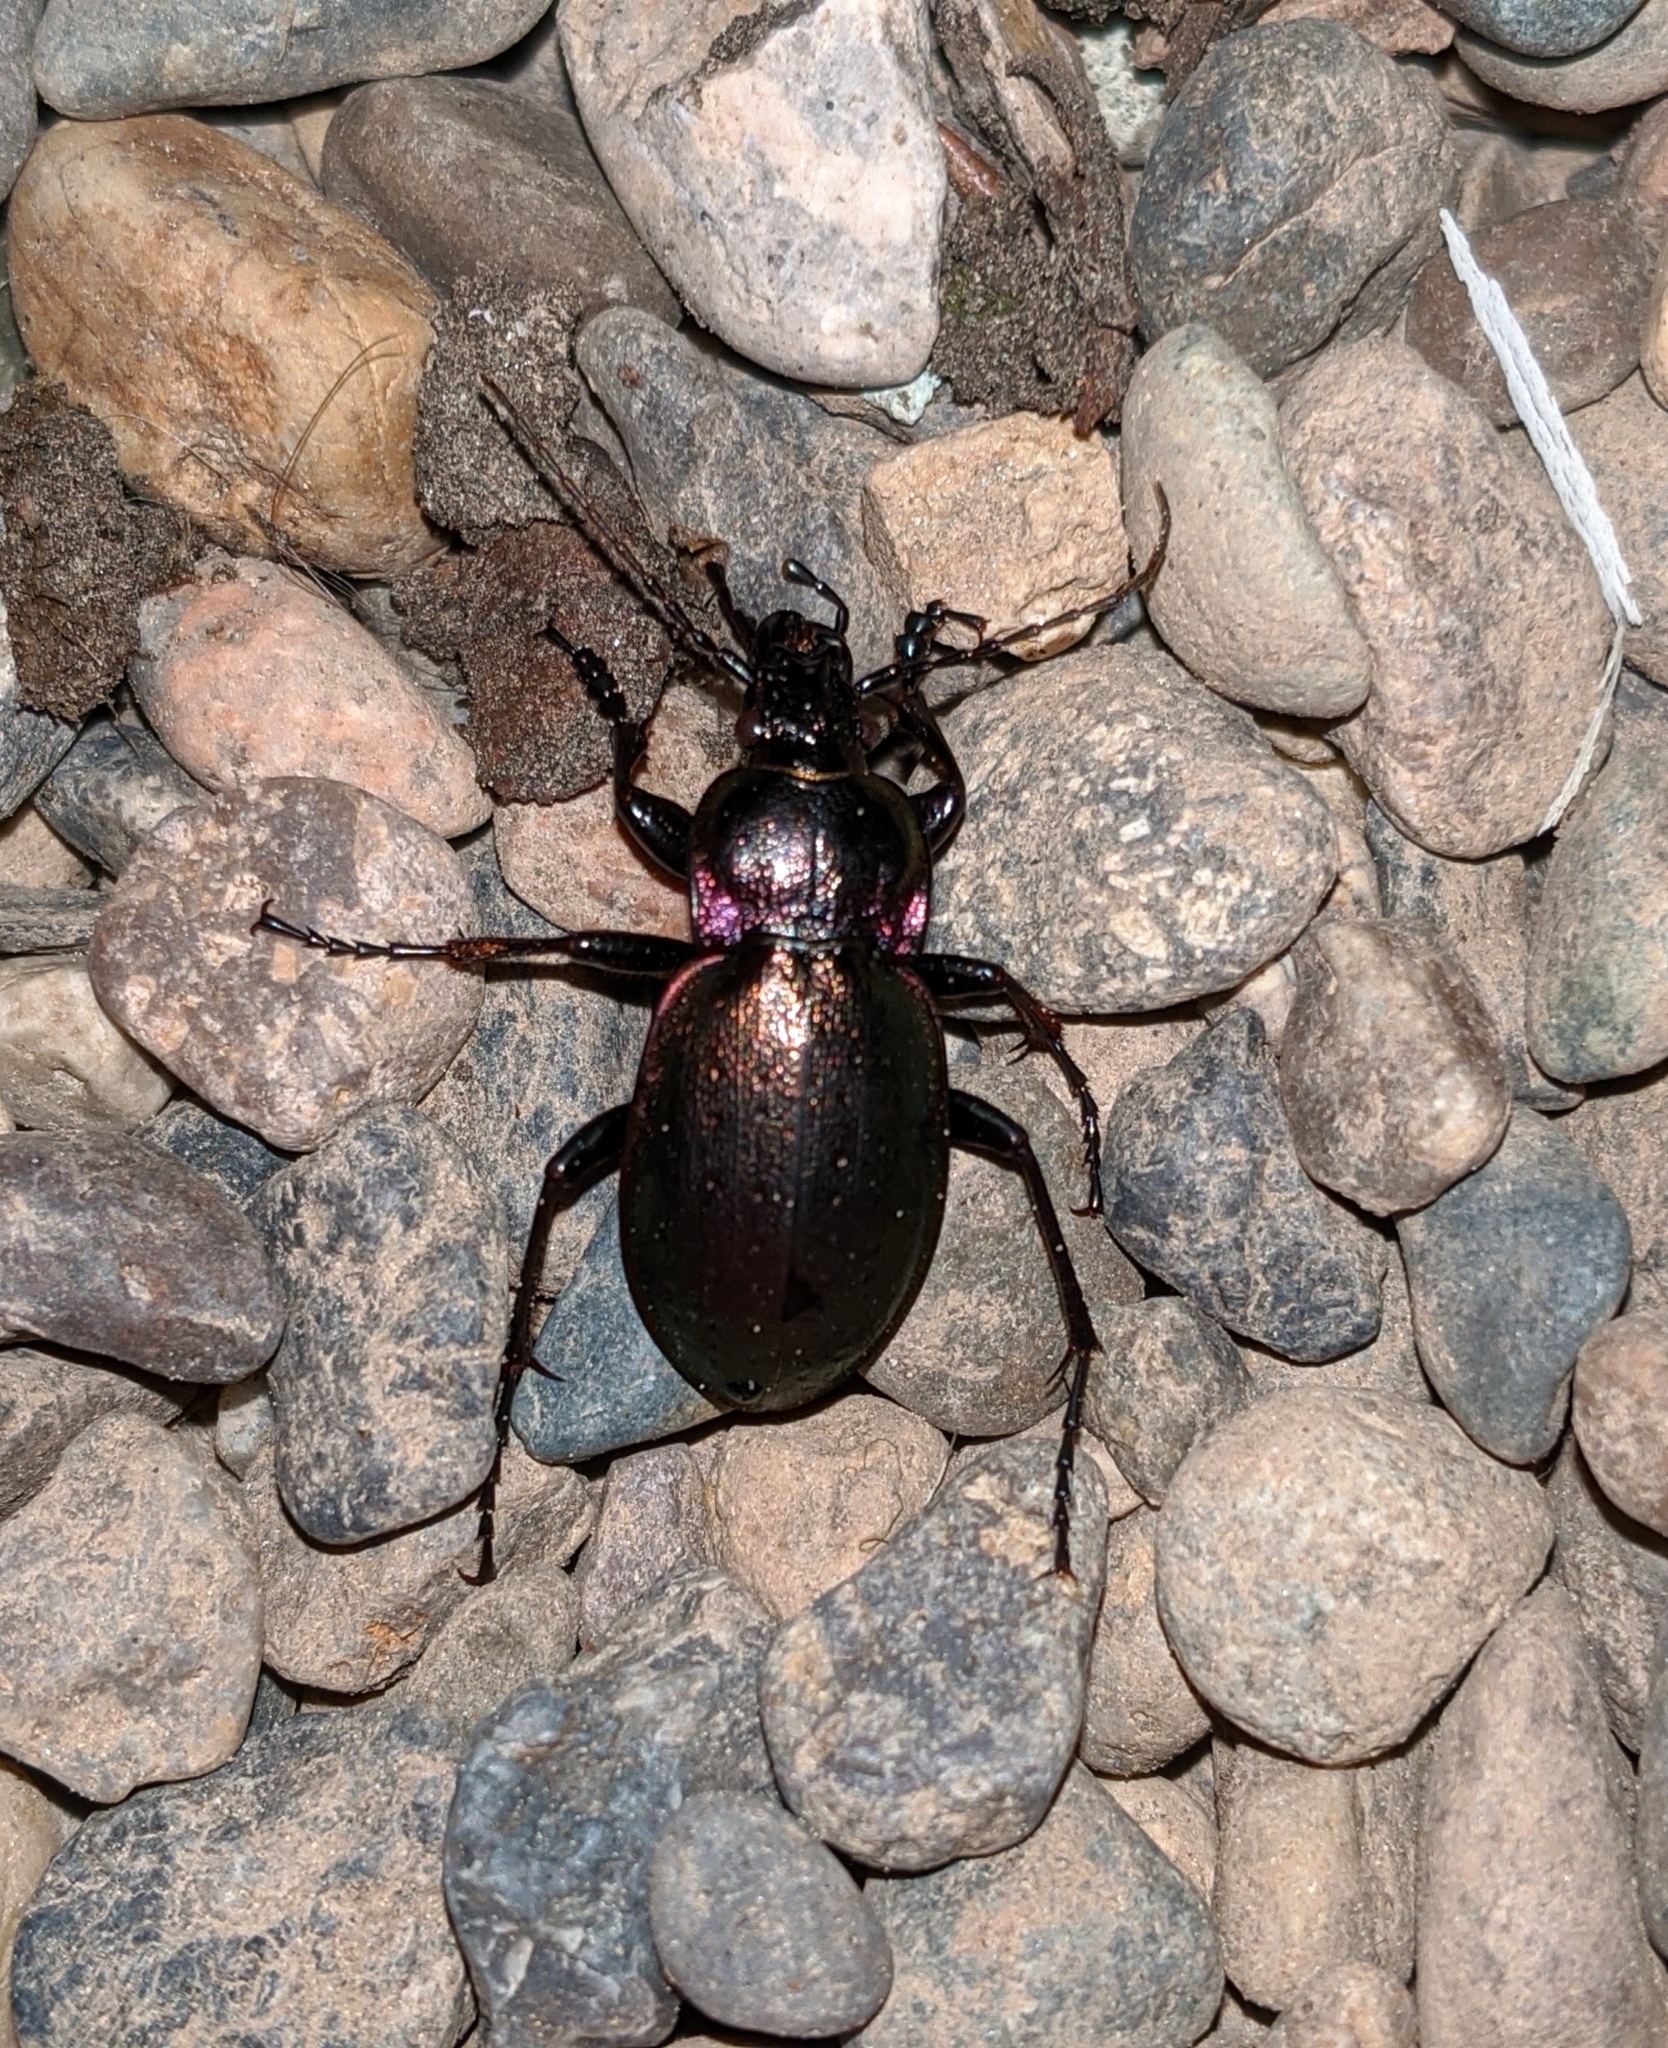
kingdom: Animalia
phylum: Arthropoda
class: Insecta
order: Coleoptera
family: Carabidae
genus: Carabus
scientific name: Carabus nemoralis
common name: European ground beetle
